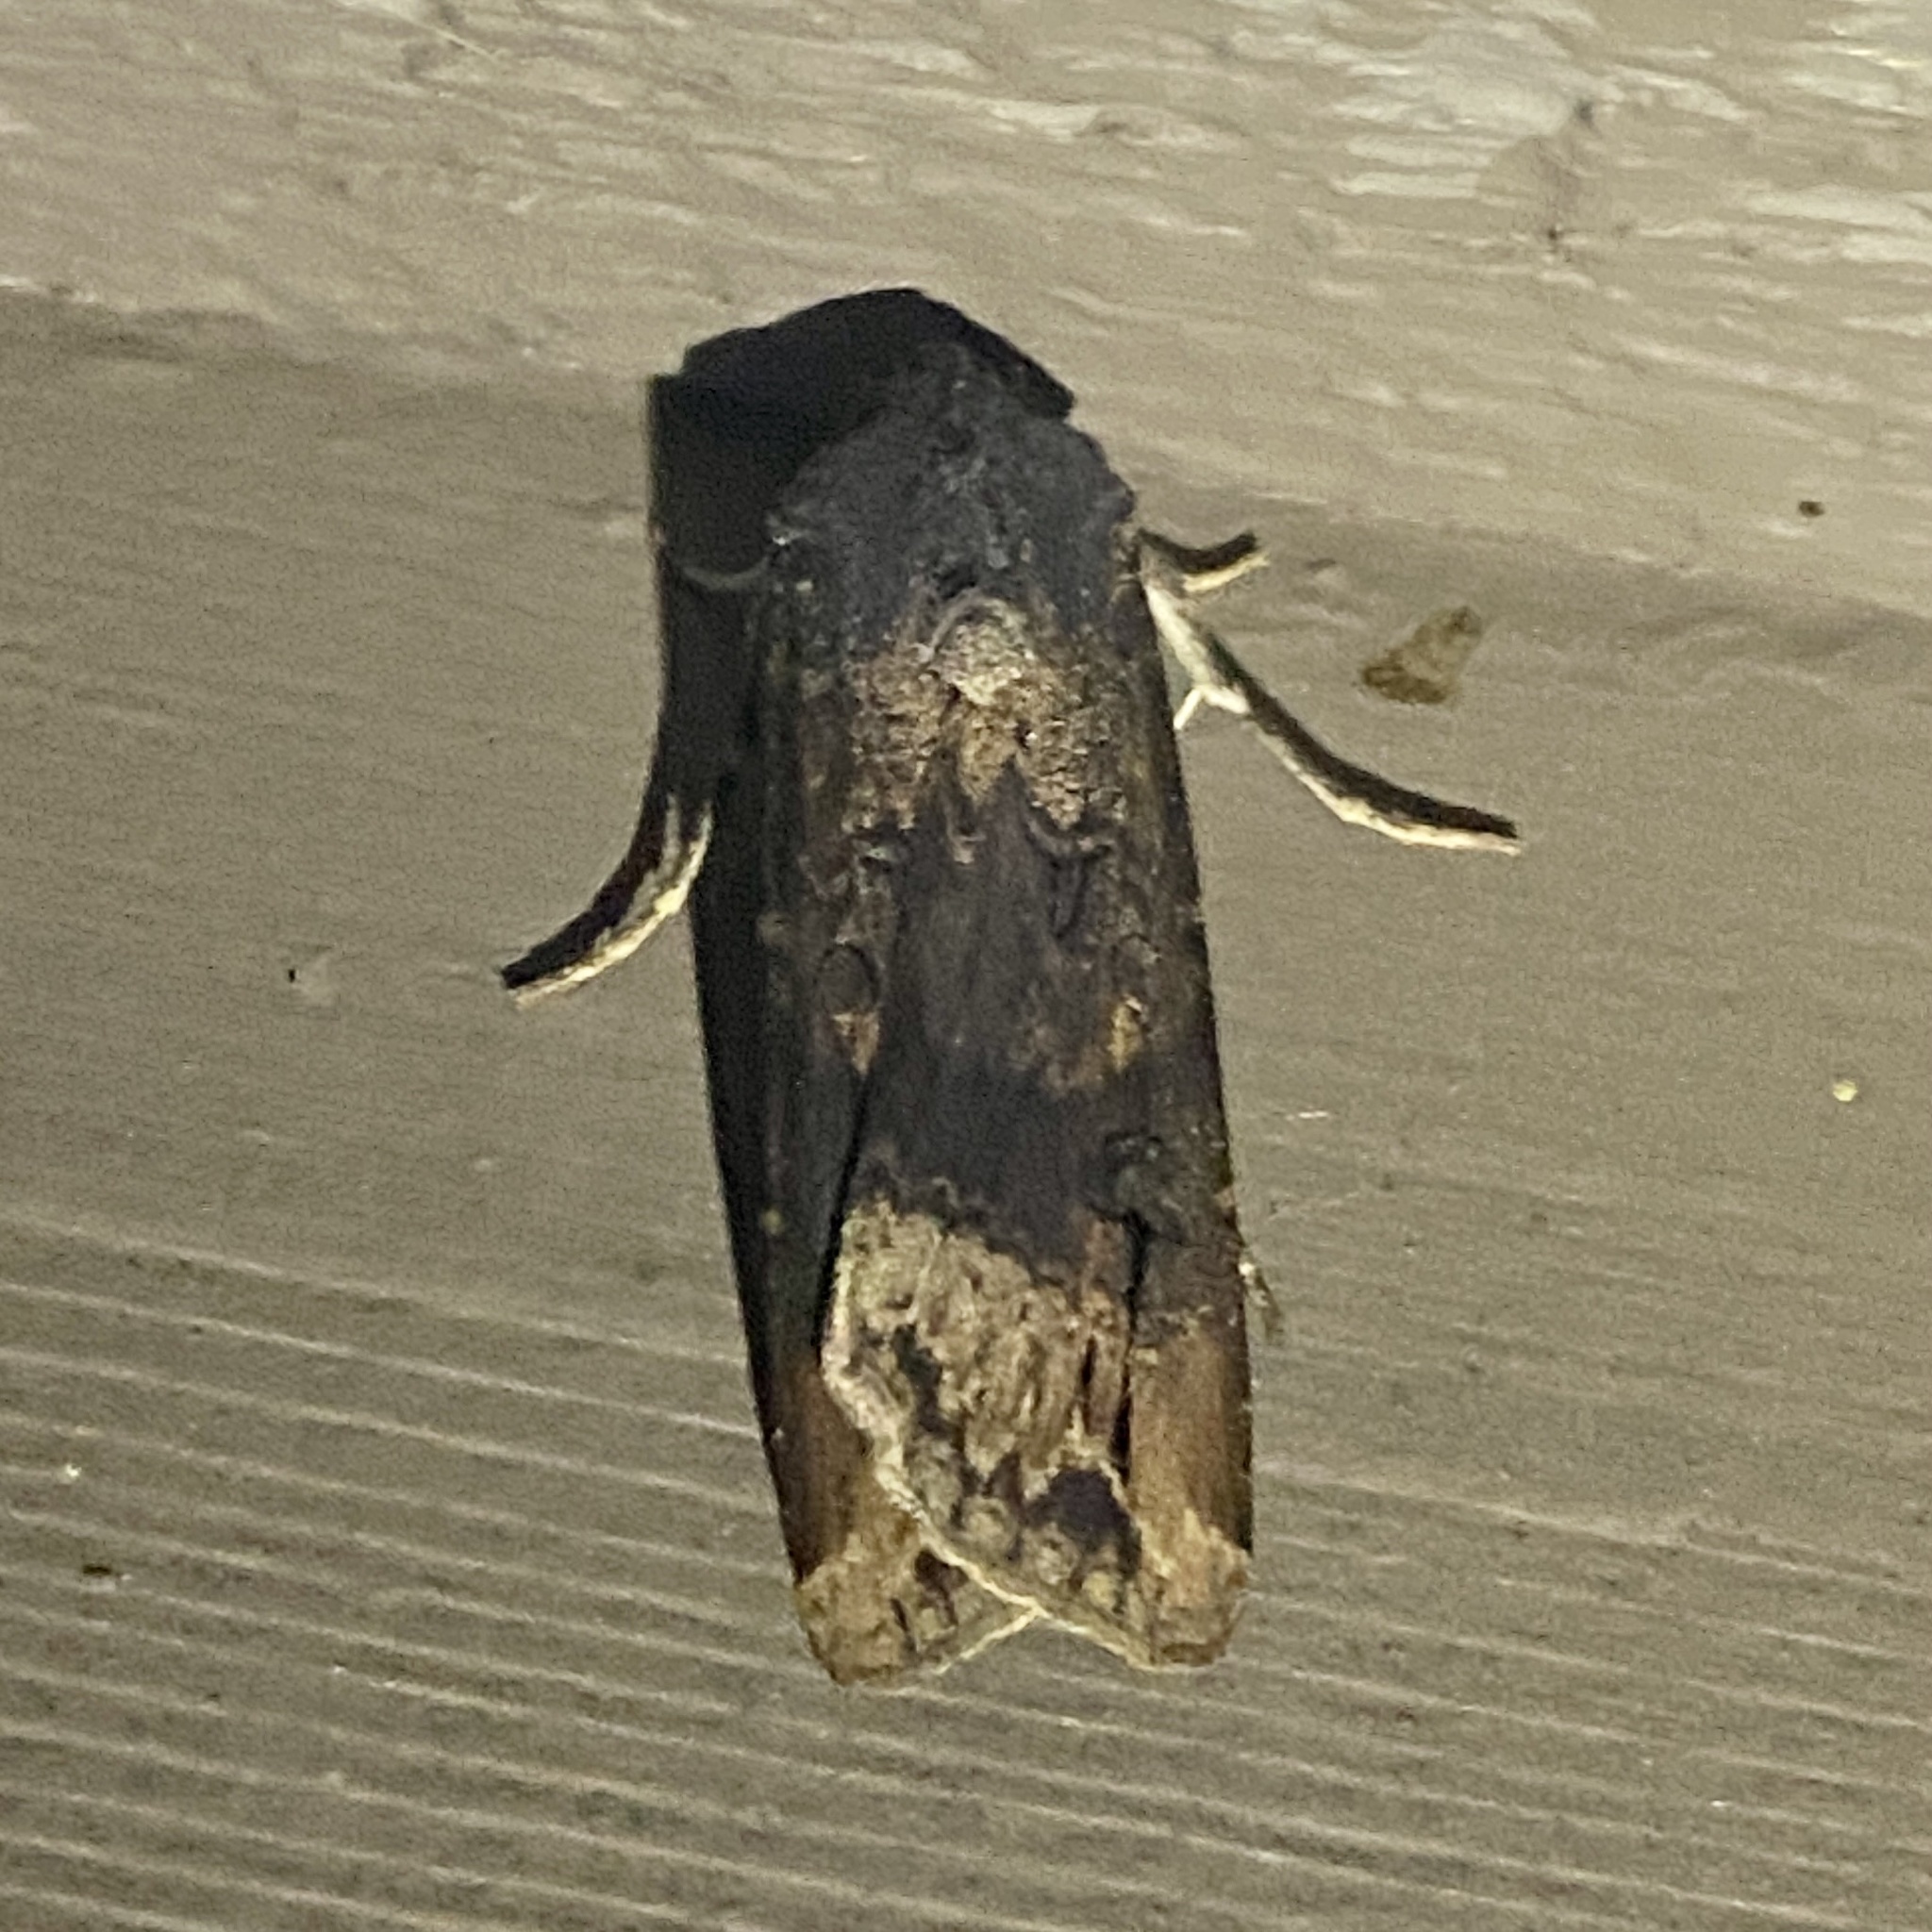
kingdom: Animalia
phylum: Arthropoda
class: Insecta
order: Lepidoptera
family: Noctuidae
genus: Agrotis
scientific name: Agrotis ipsilon
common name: Dark sword-grass
